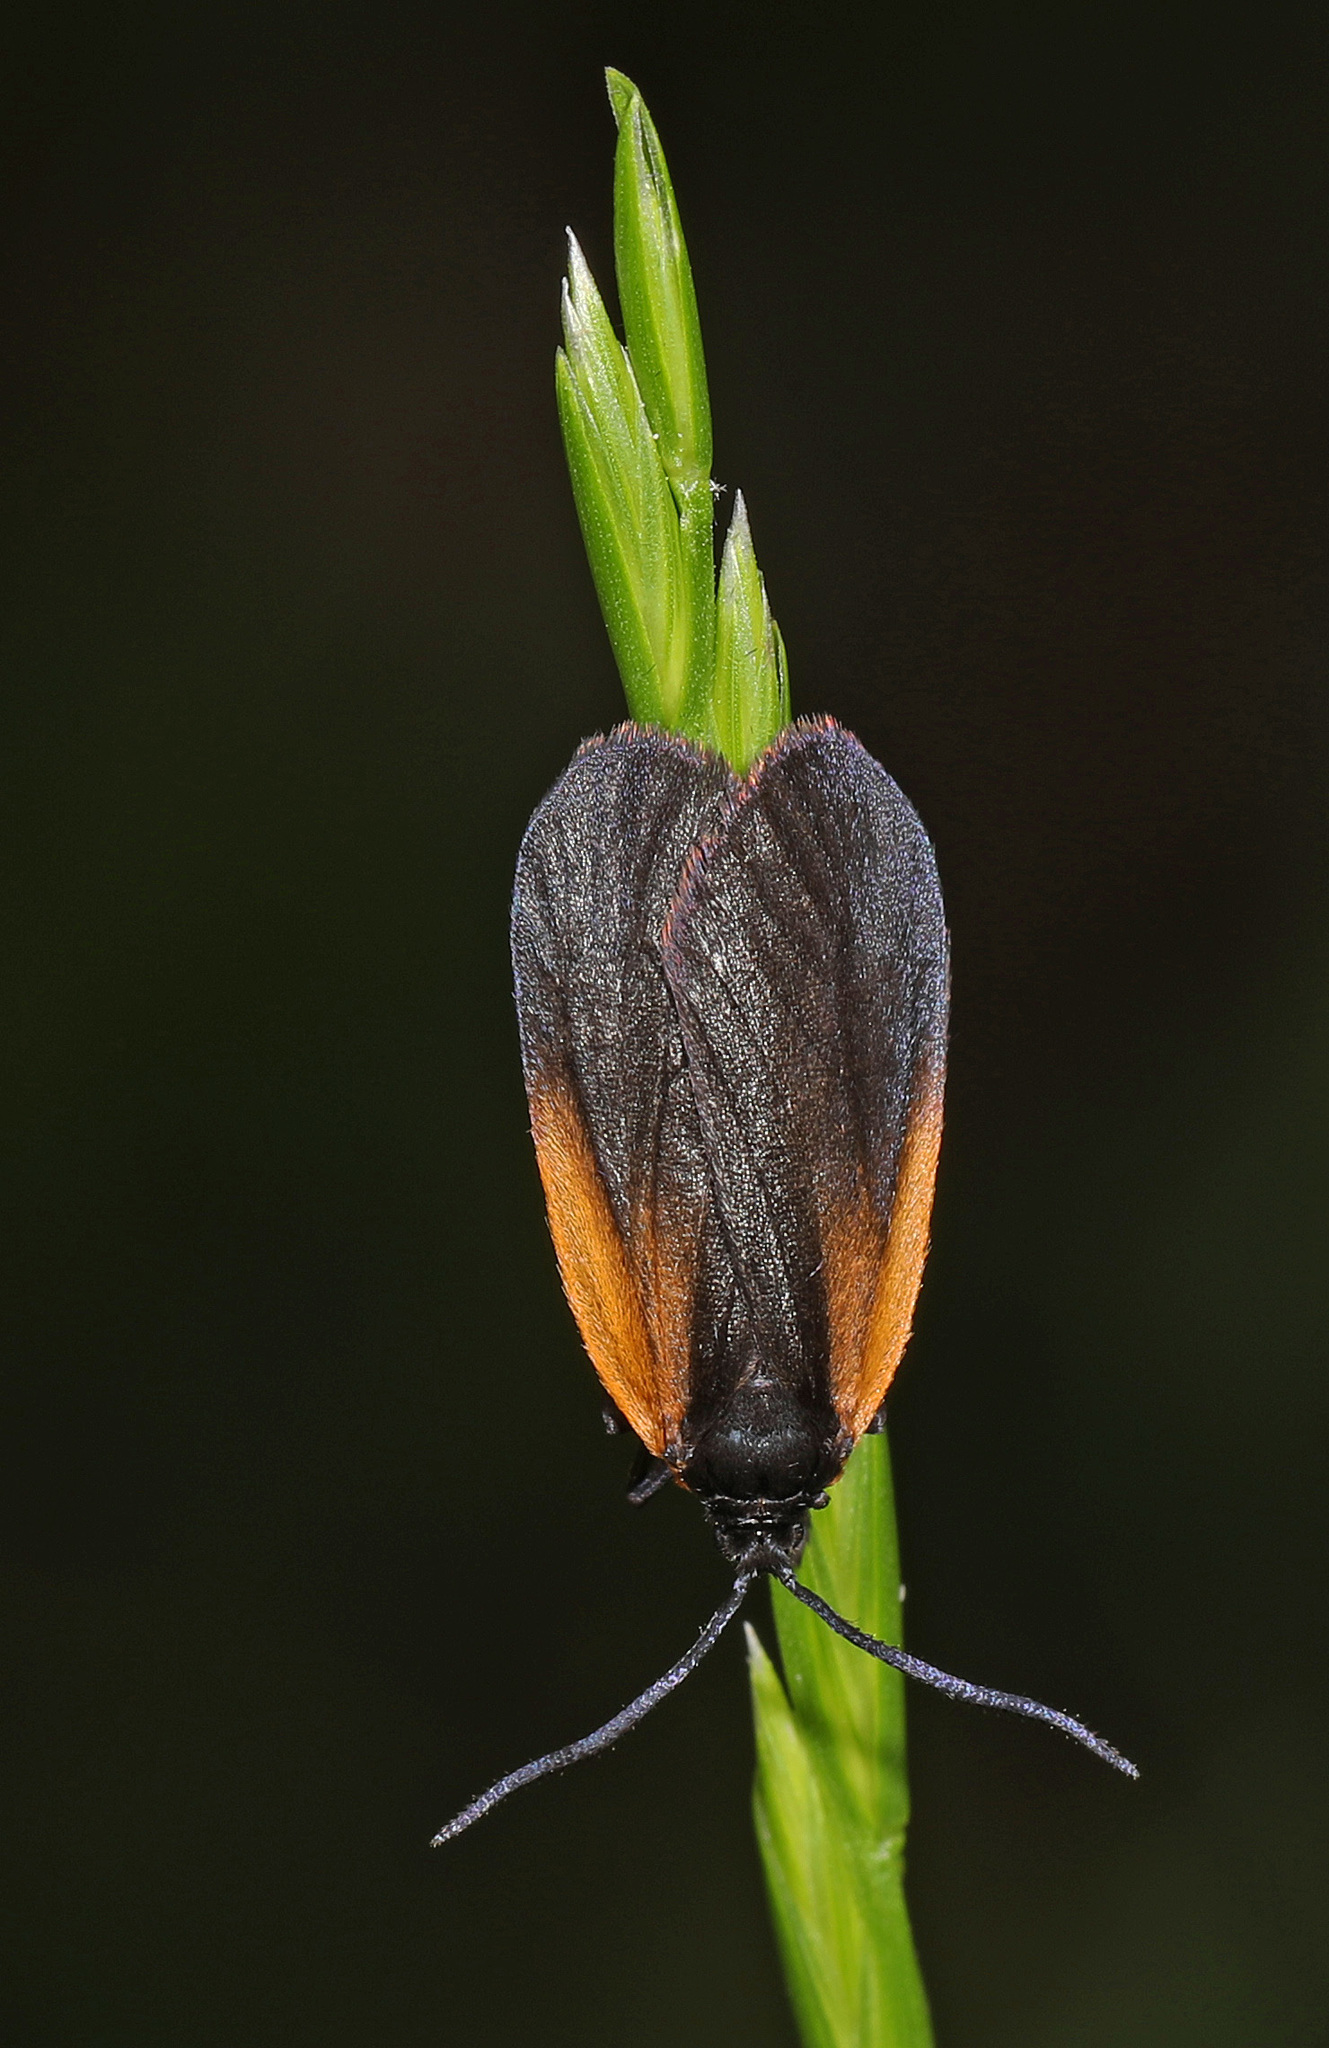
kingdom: Animalia
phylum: Arthropoda
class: Insecta
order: Lepidoptera
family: Zygaenidae
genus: Malthaca
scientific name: Malthaca dimidiata
